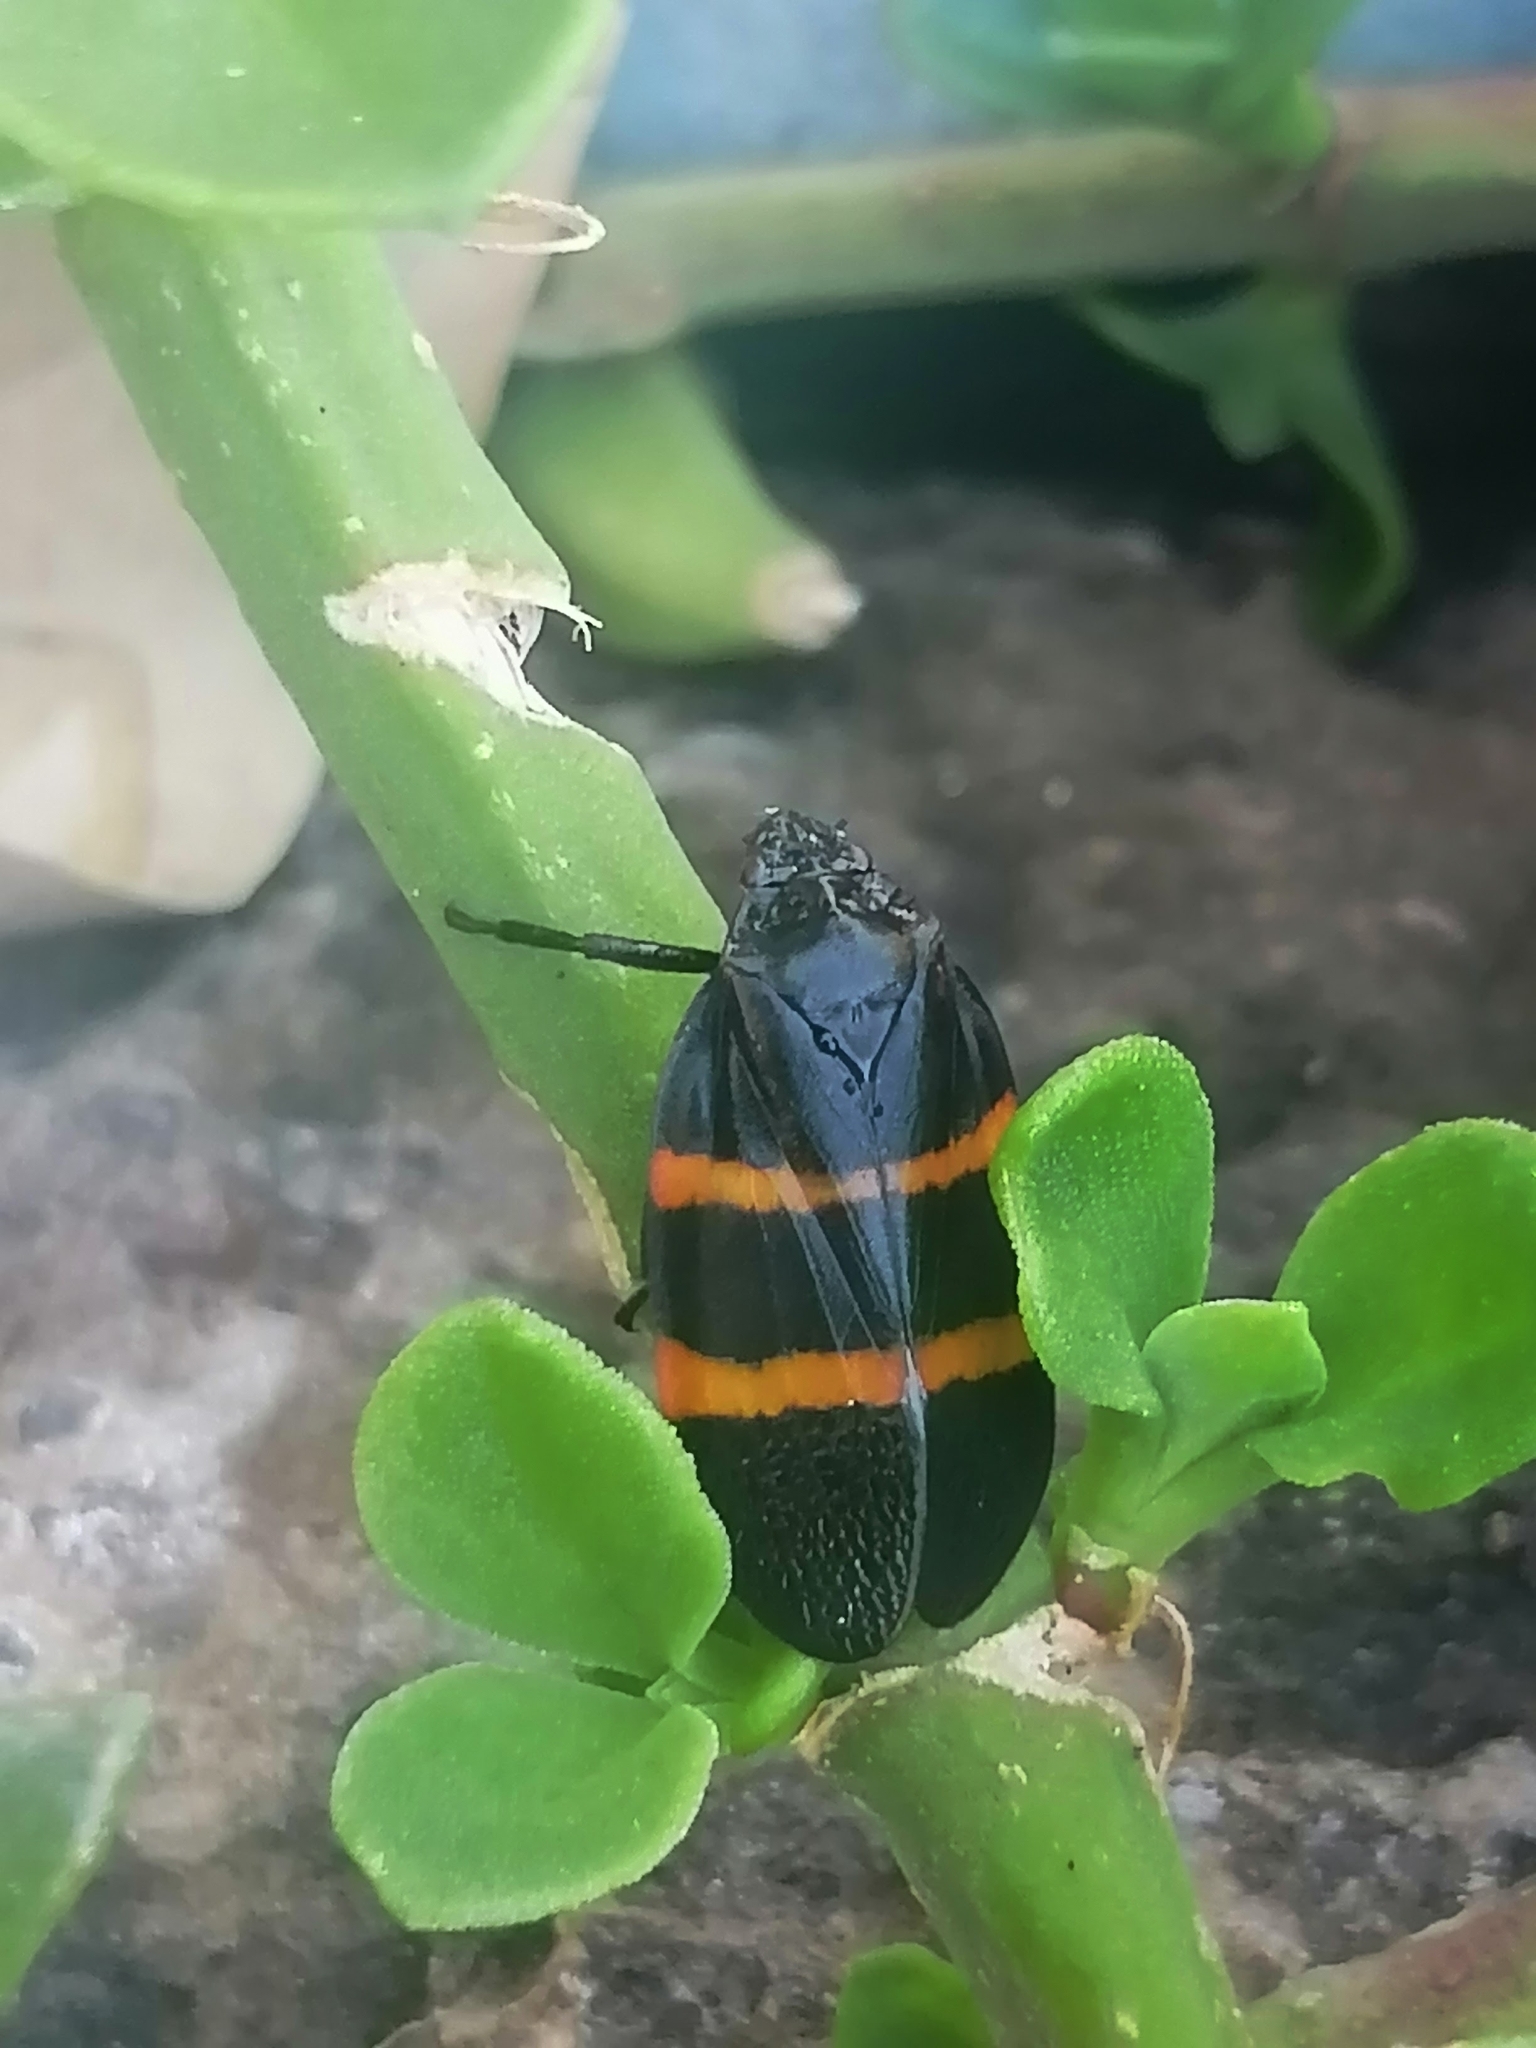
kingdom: Animalia
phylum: Arthropoda
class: Insecta
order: Hemiptera
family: Cercopidae
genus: Huaina
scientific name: Huaina inca
